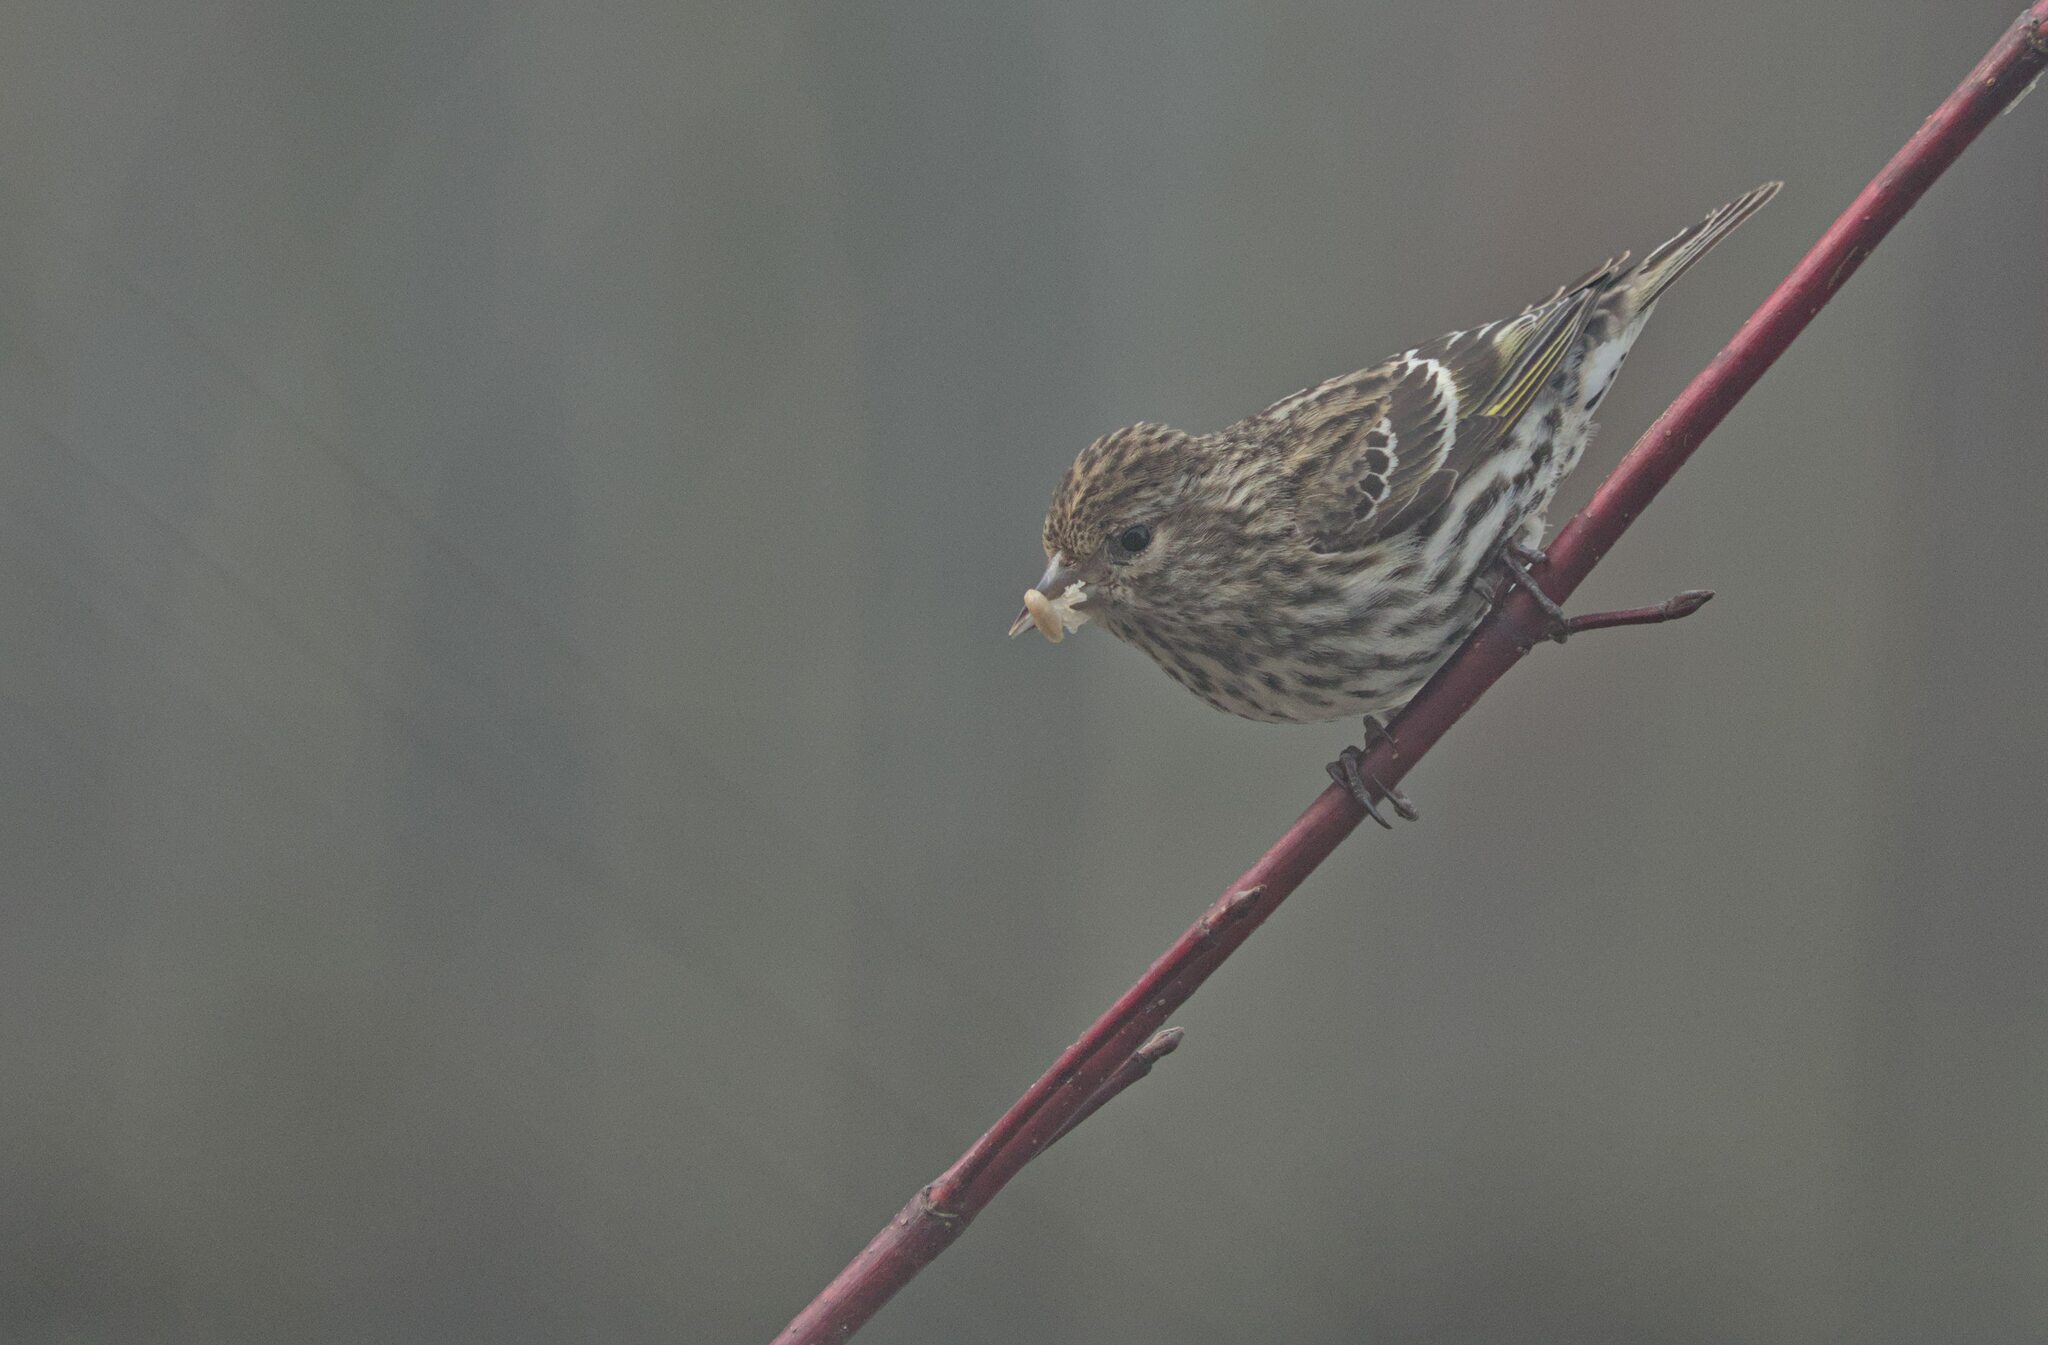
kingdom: Animalia
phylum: Chordata
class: Aves
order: Passeriformes
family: Fringillidae
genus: Spinus
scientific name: Spinus pinus
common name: Pine siskin
